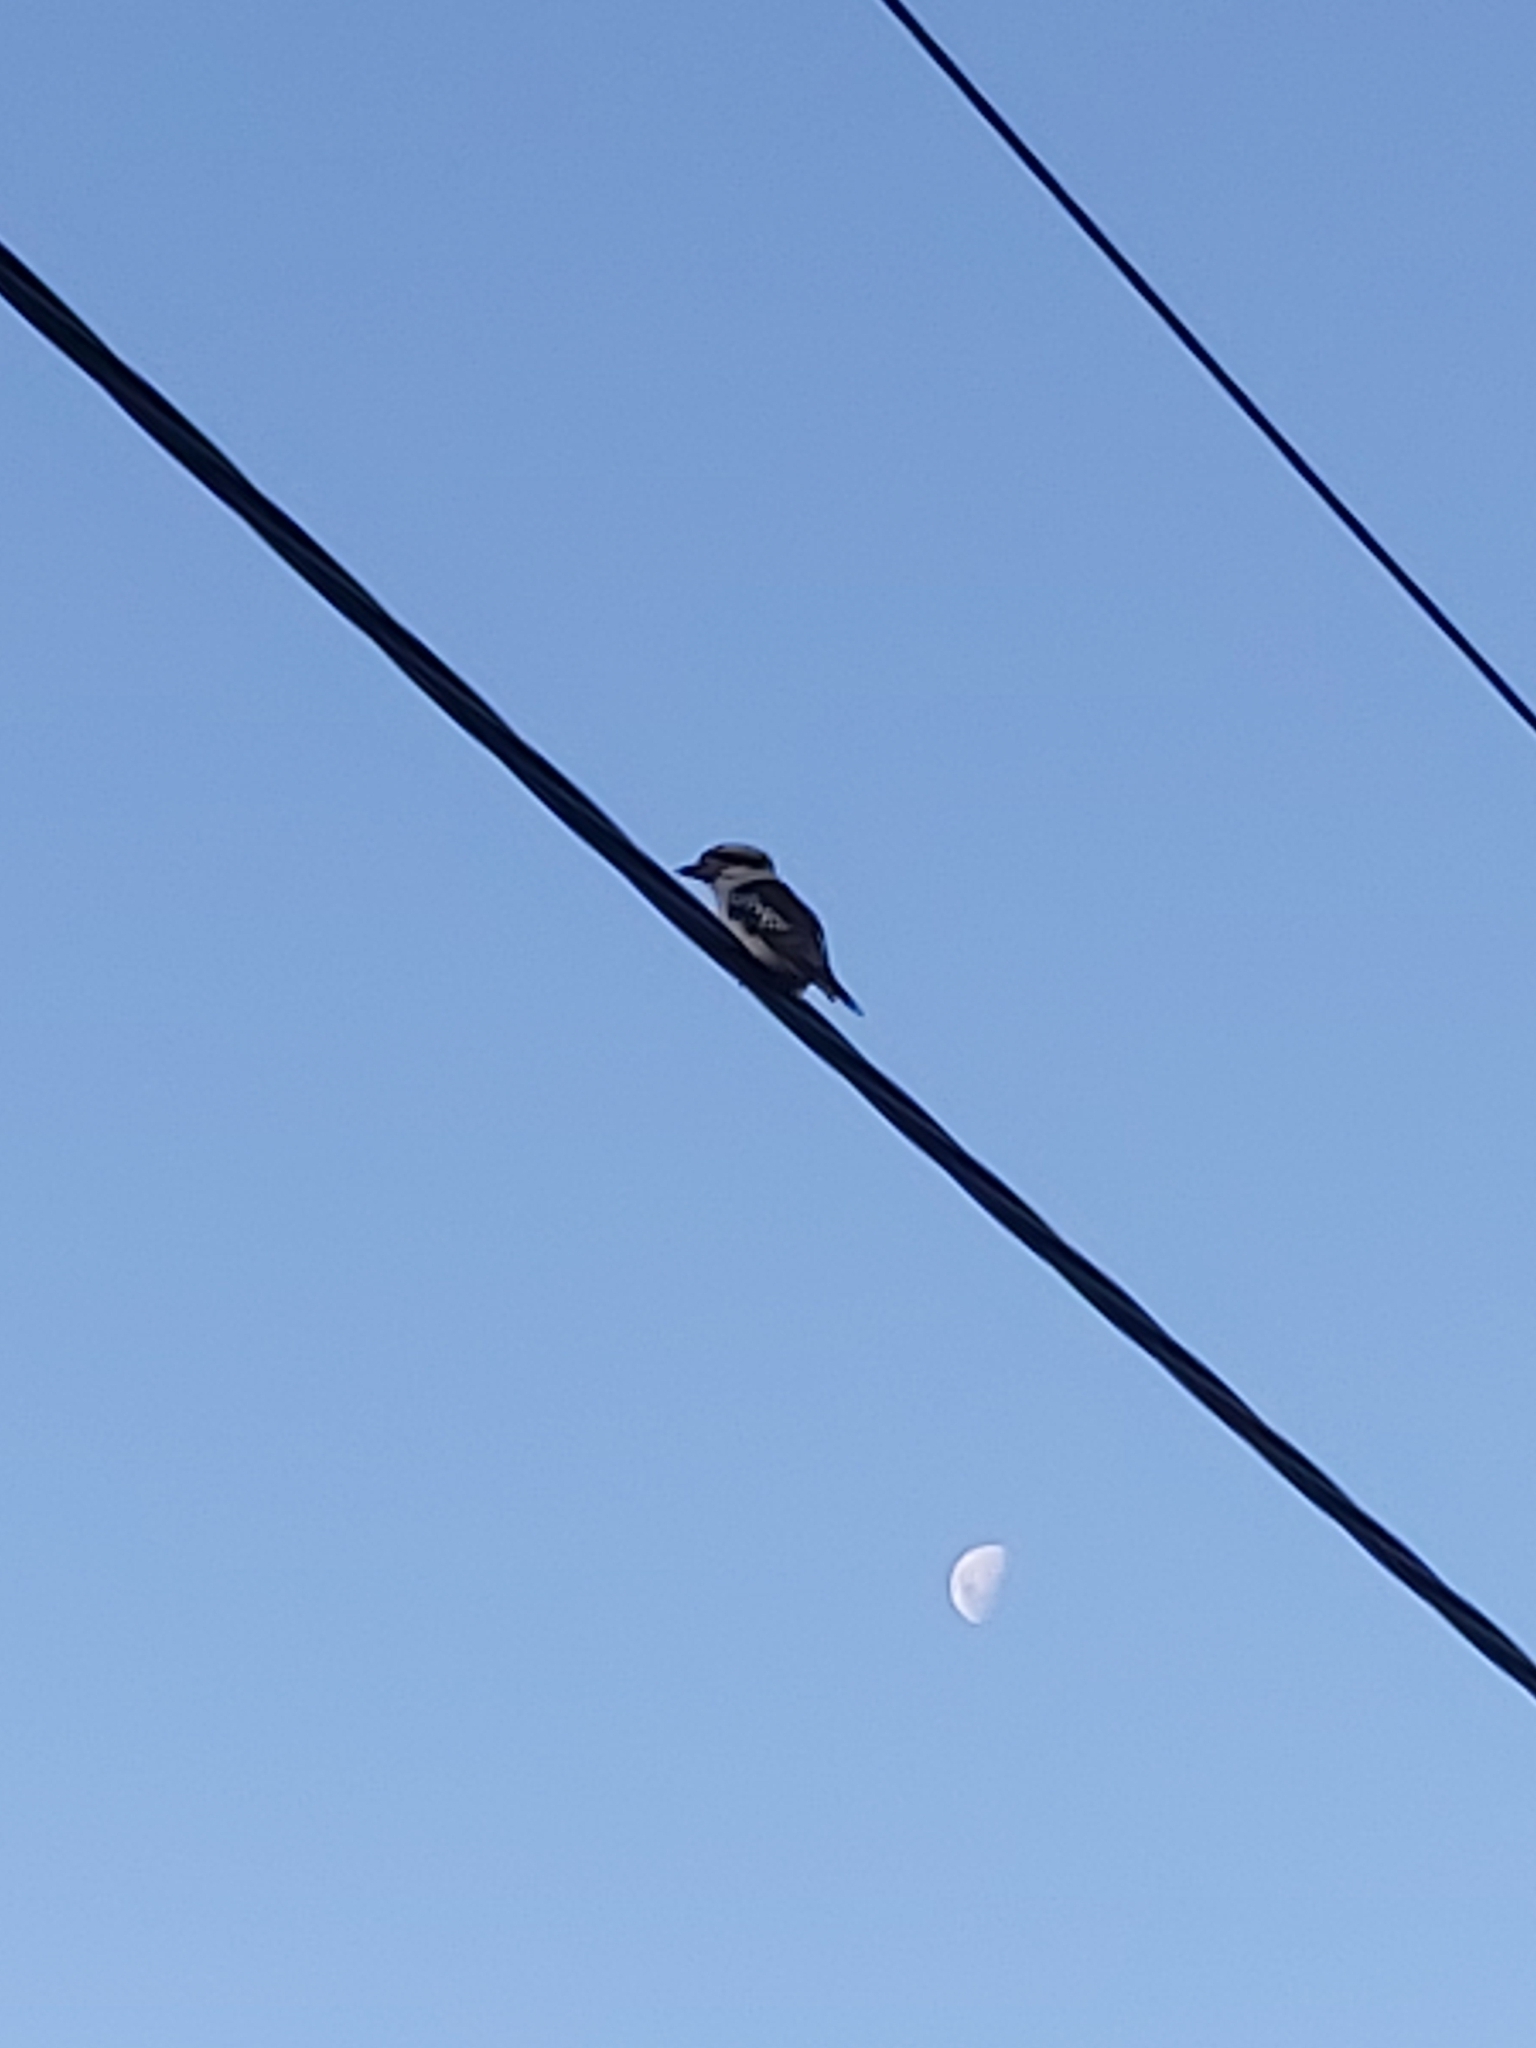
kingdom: Animalia
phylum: Chordata
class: Aves
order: Coraciiformes
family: Alcedinidae
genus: Dacelo
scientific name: Dacelo novaeguineae
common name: Laughing kookaburra
